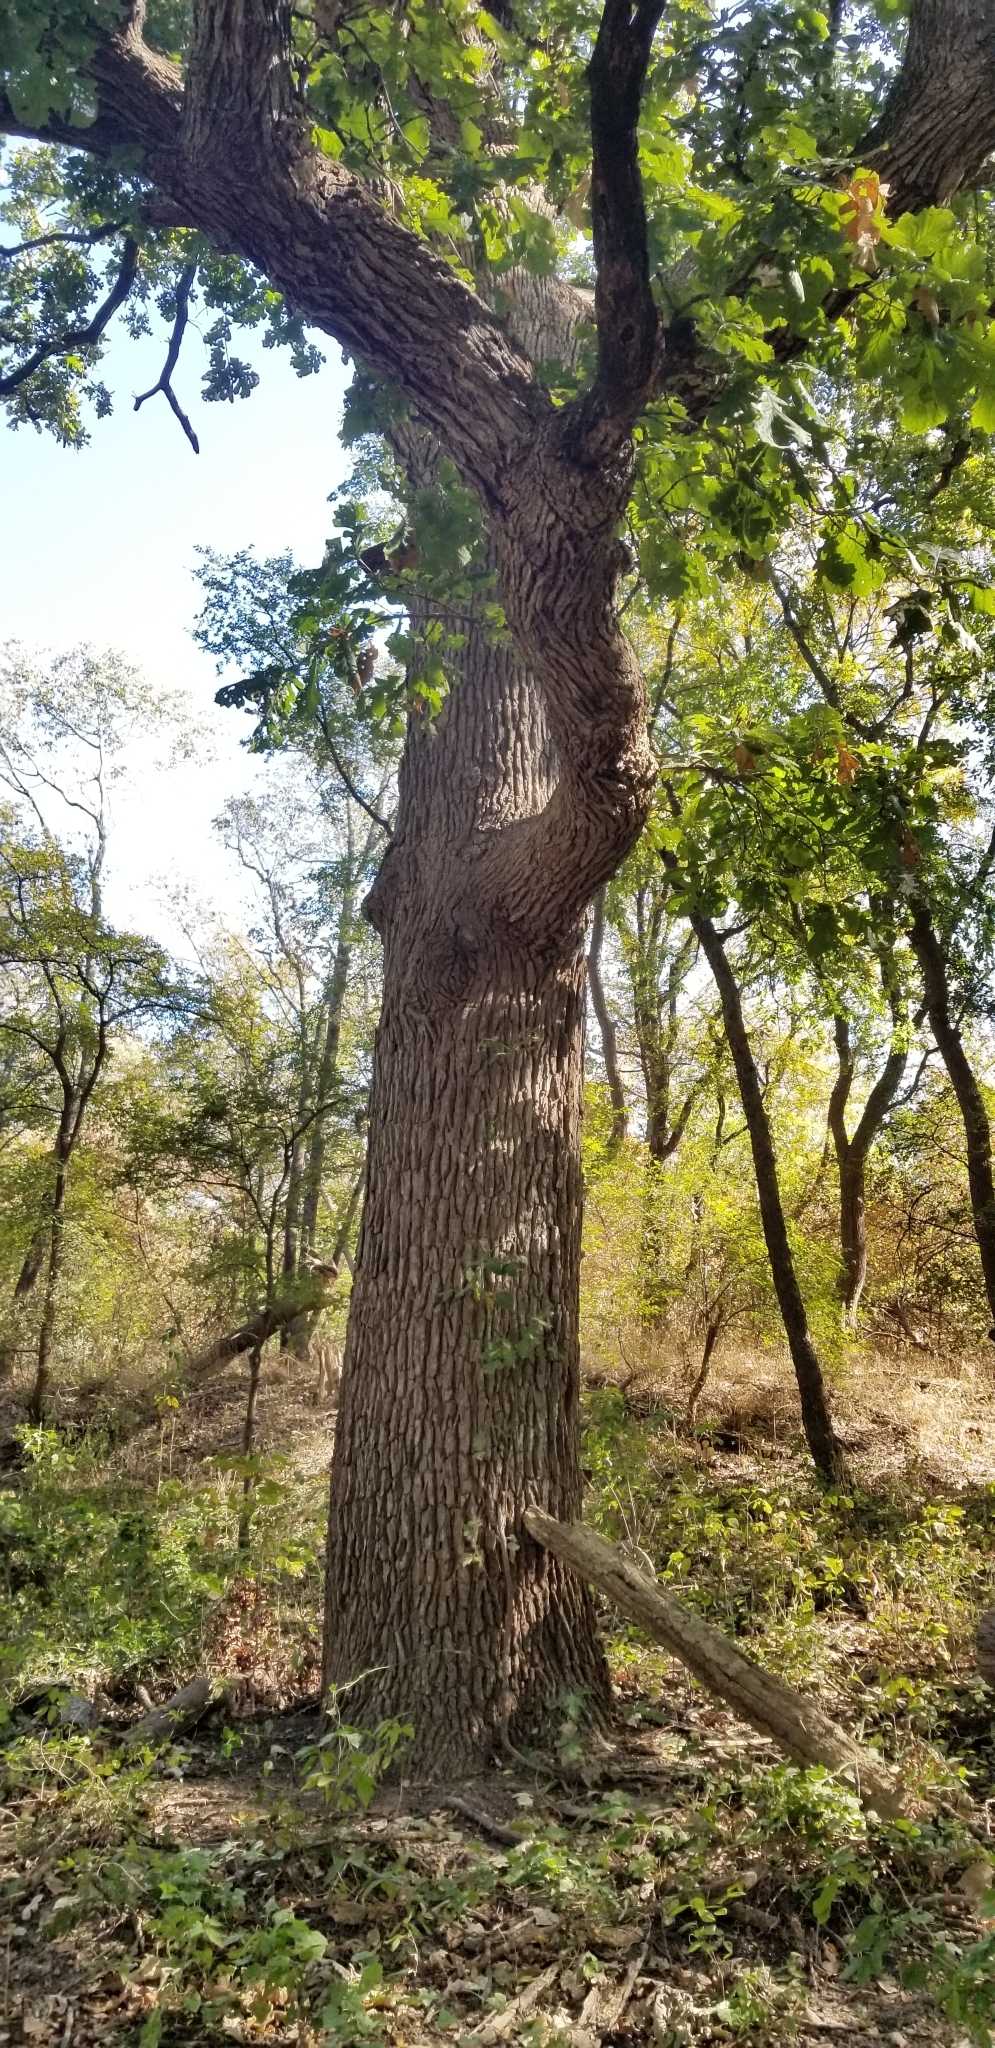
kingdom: Plantae
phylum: Tracheophyta
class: Magnoliopsida
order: Fagales
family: Fagaceae
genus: Quercus
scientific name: Quercus macrocarpa
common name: Bur oak
